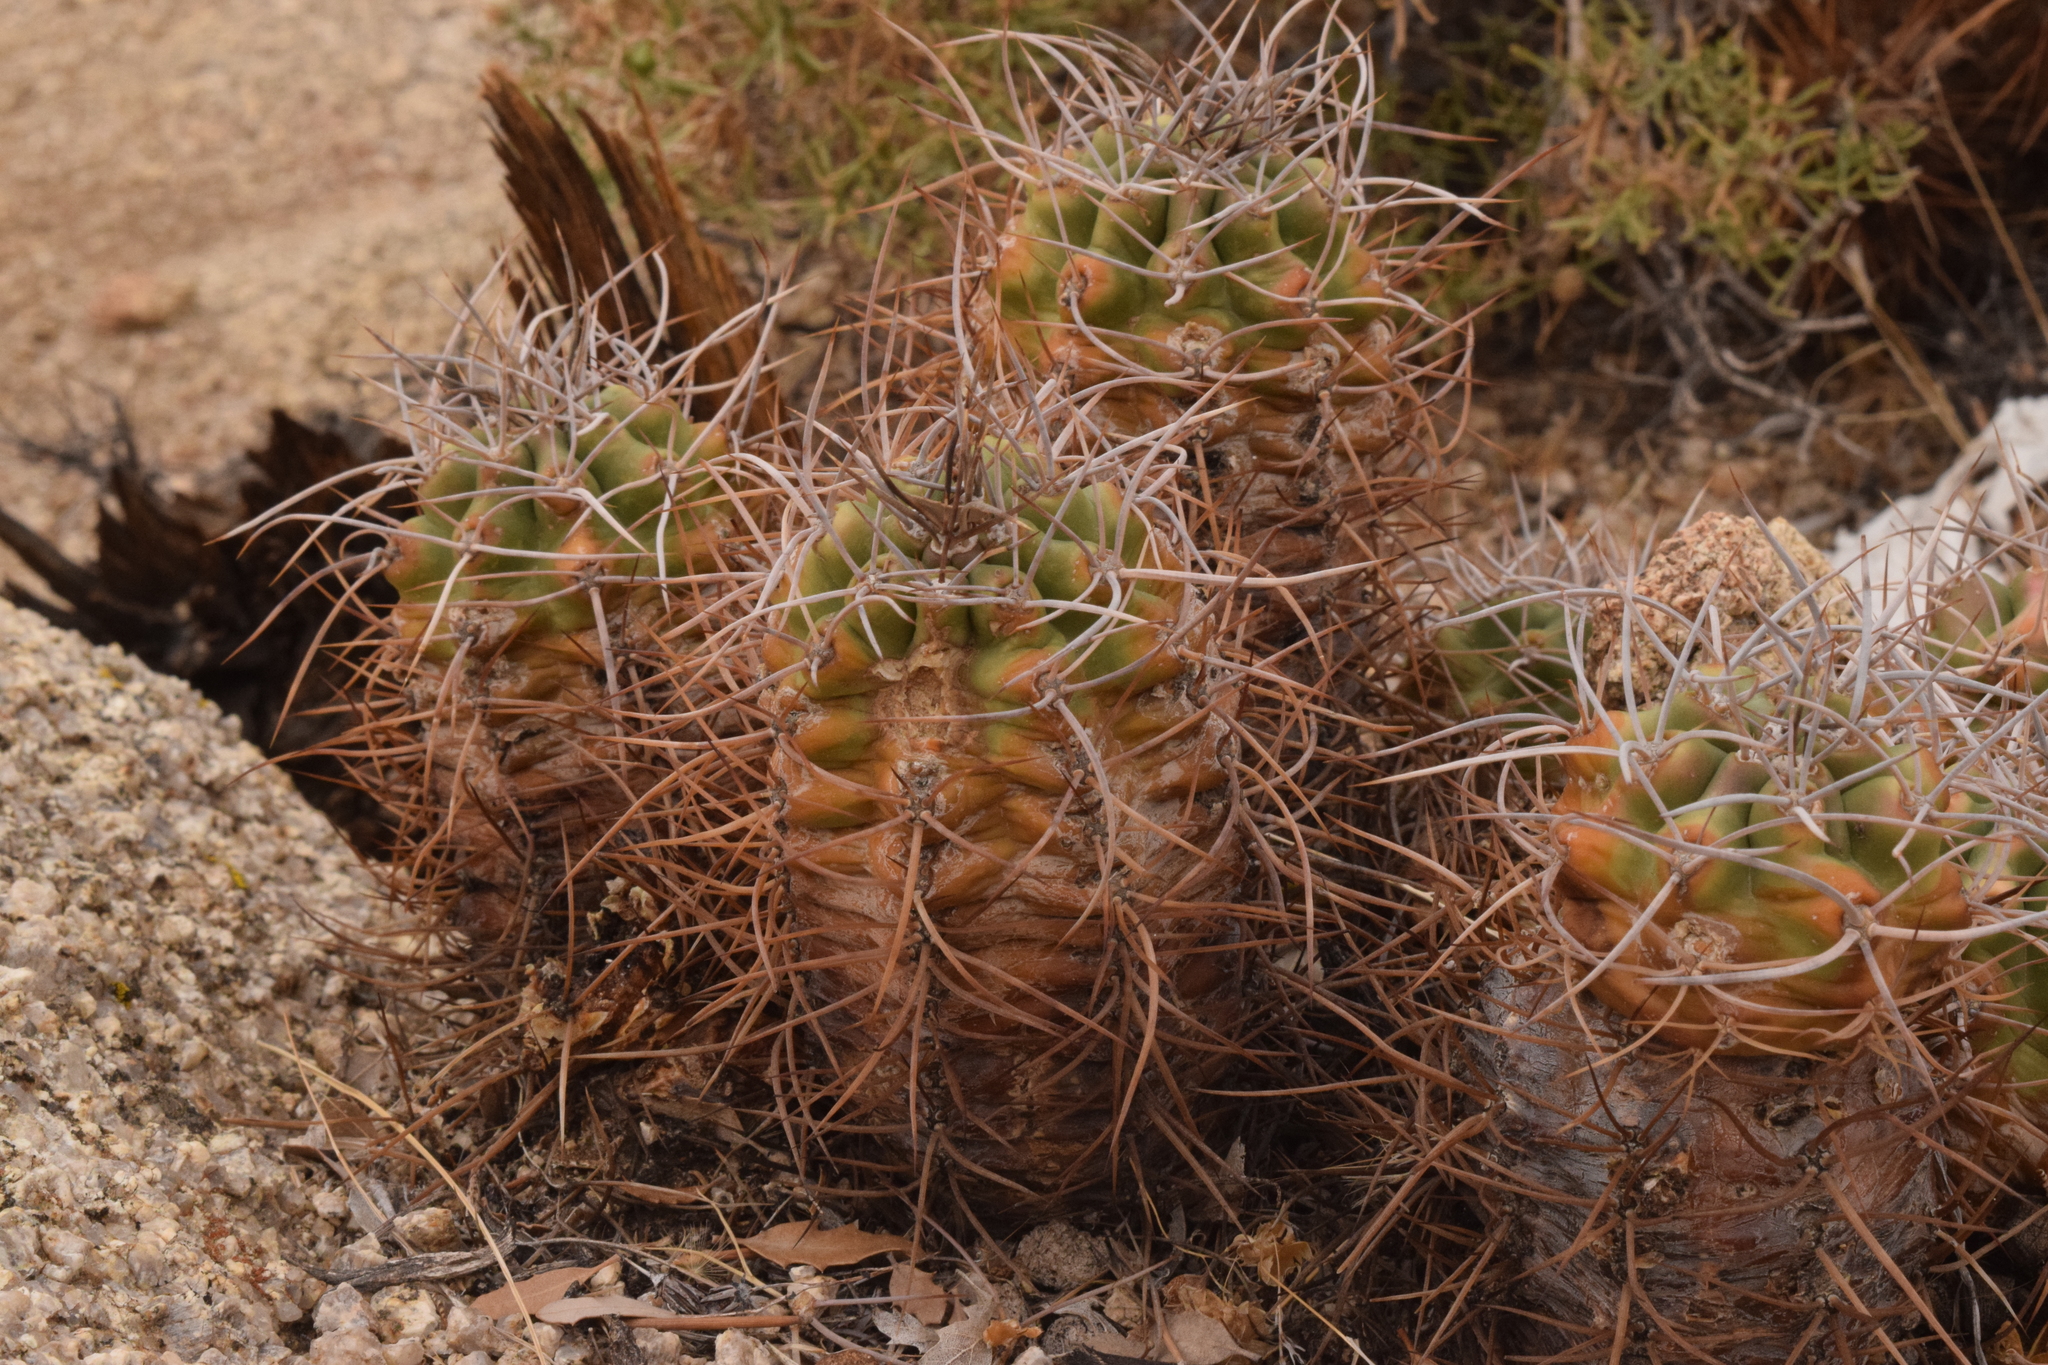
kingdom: Plantae
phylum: Tracheophyta
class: Magnoliopsida
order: Caryophyllales
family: Cactaceae
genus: Echinocereus
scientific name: Echinocereus triglochidiatus
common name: Claretcup hedgehog
